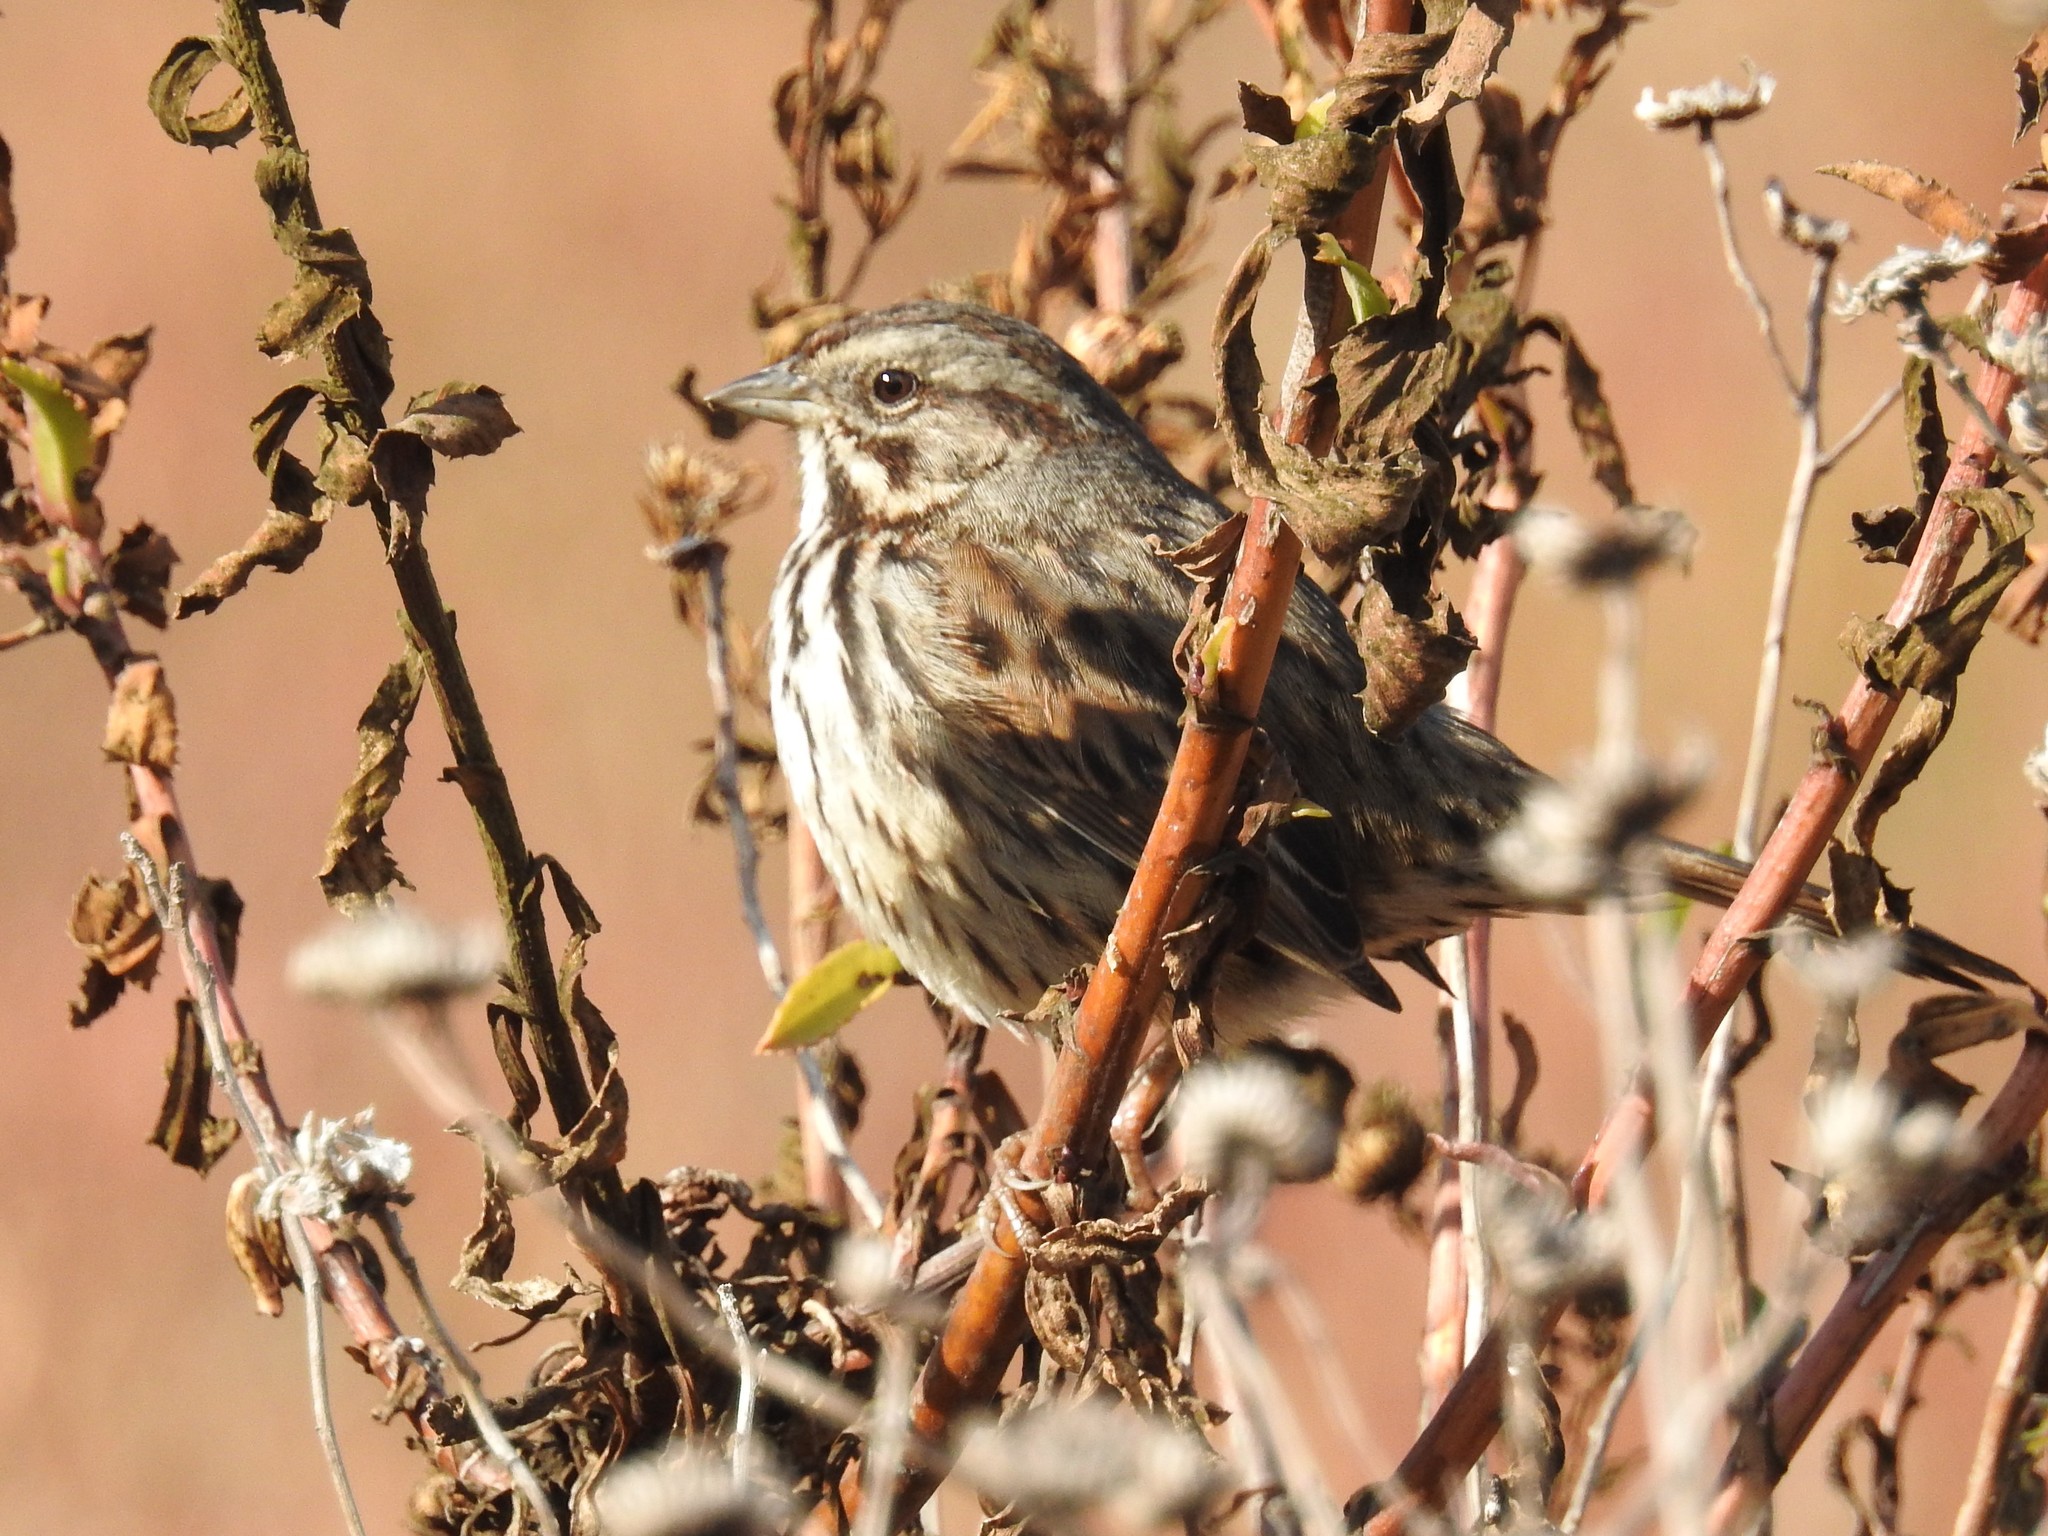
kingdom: Animalia
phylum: Chordata
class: Aves
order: Passeriformes
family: Passerellidae
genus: Melospiza
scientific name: Melospiza melodia
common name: Song sparrow
